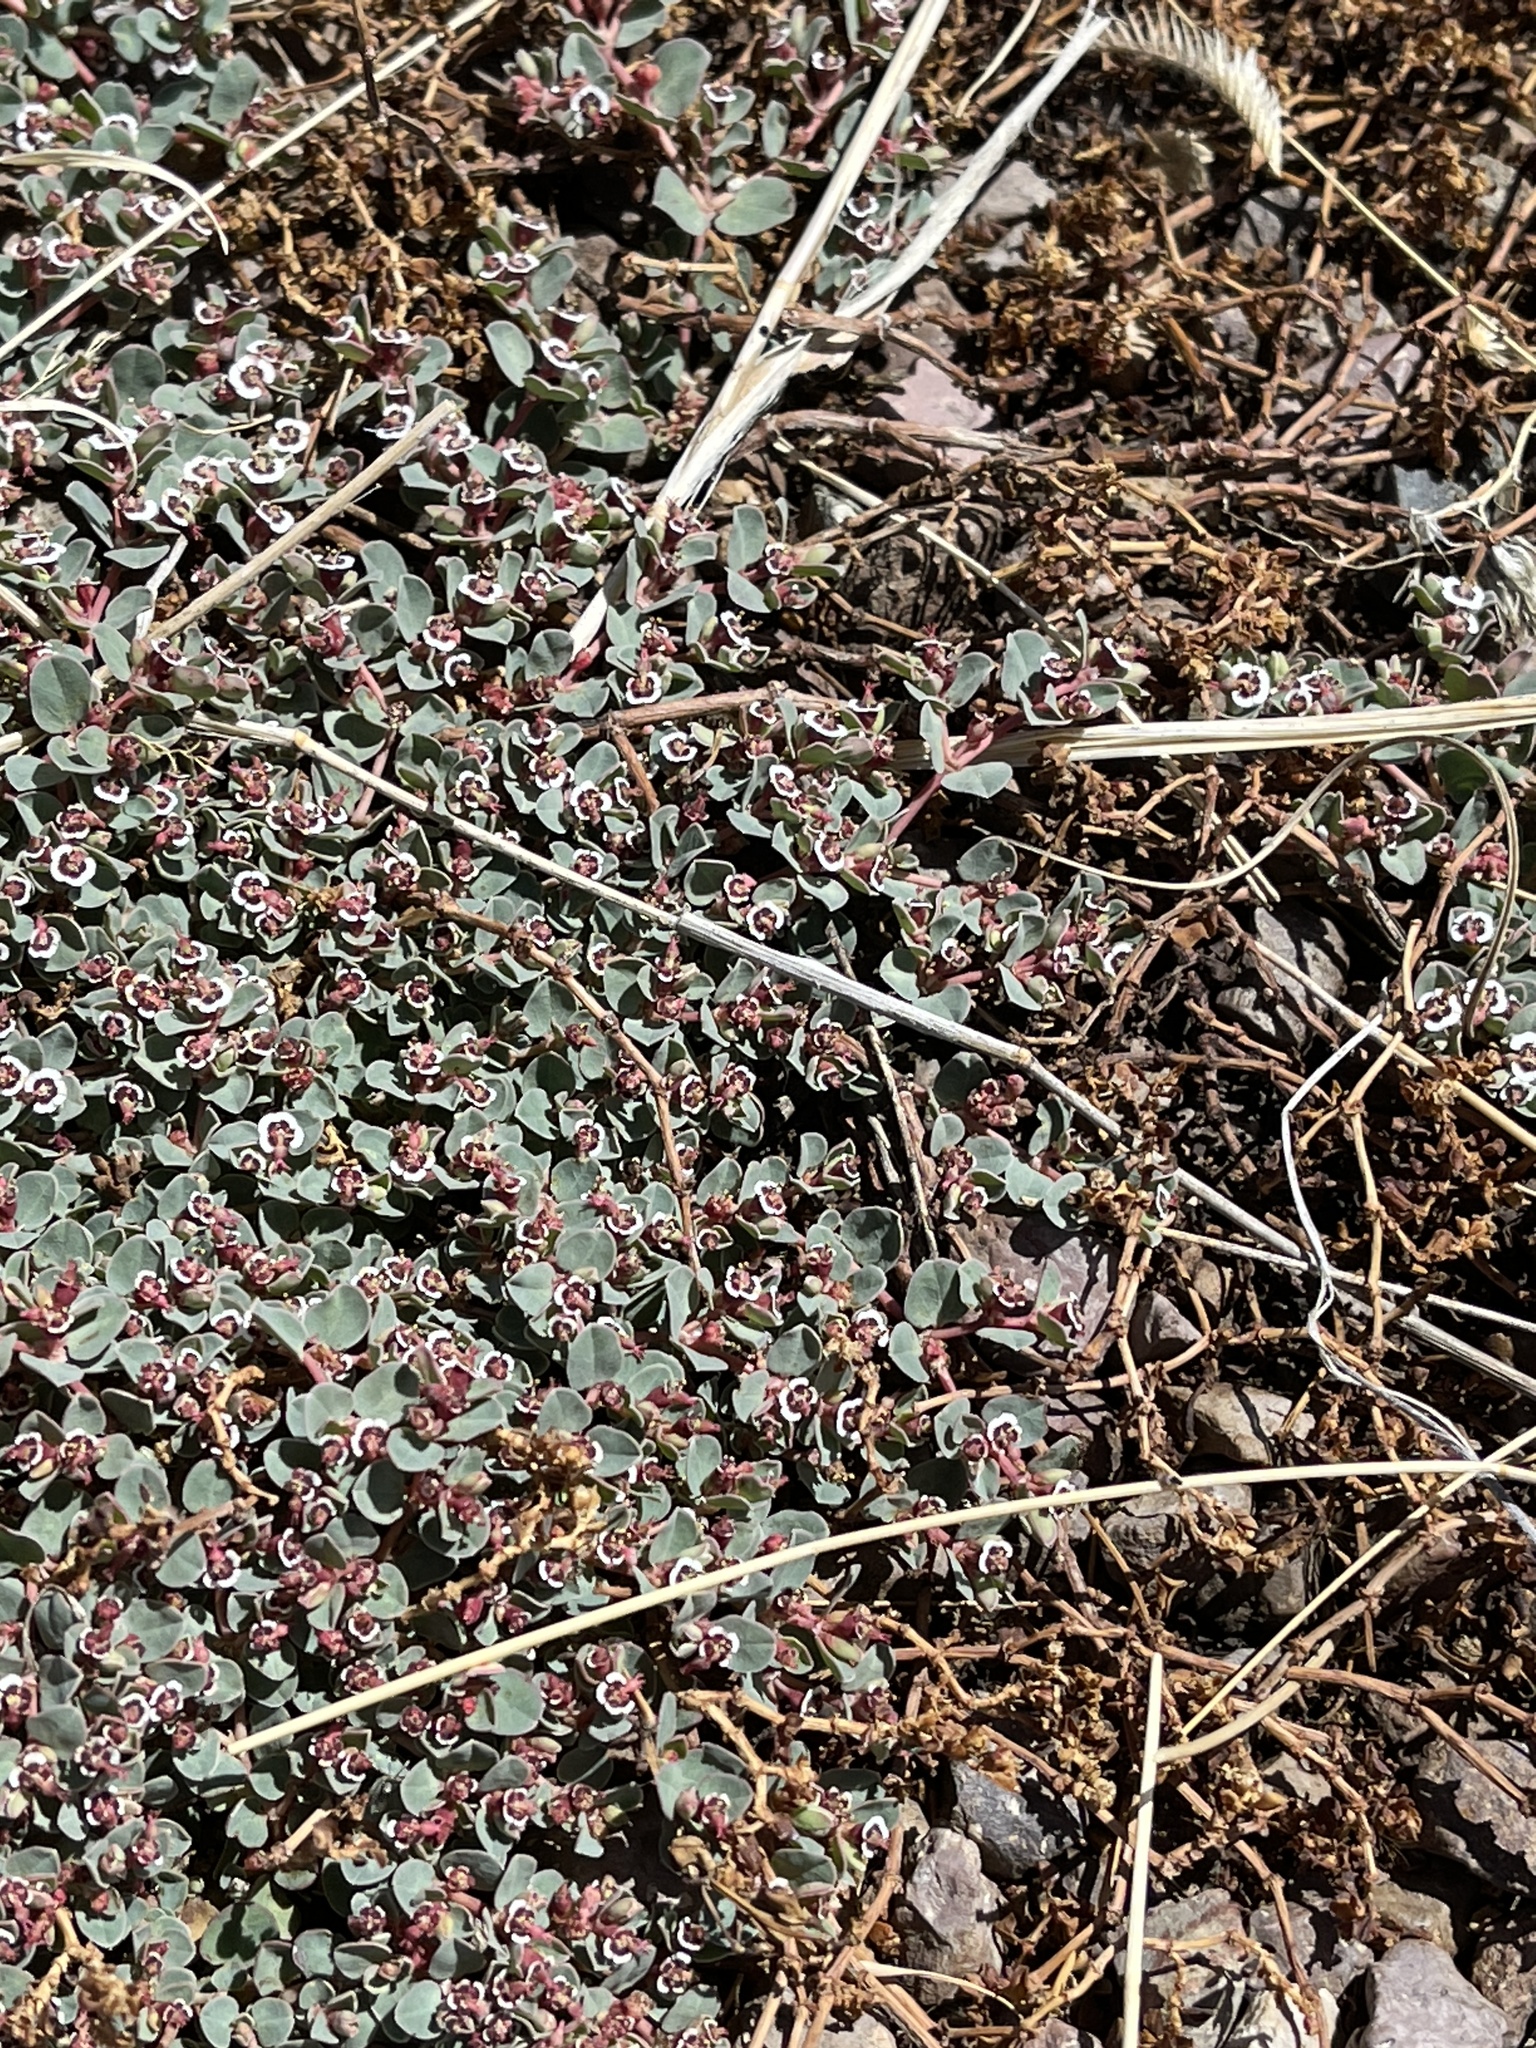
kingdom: Plantae
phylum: Tracheophyta
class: Magnoliopsida
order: Malpighiales
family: Euphorbiaceae
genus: Euphorbia
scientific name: Euphorbia albomarginata
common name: Whitemargin sandmat
